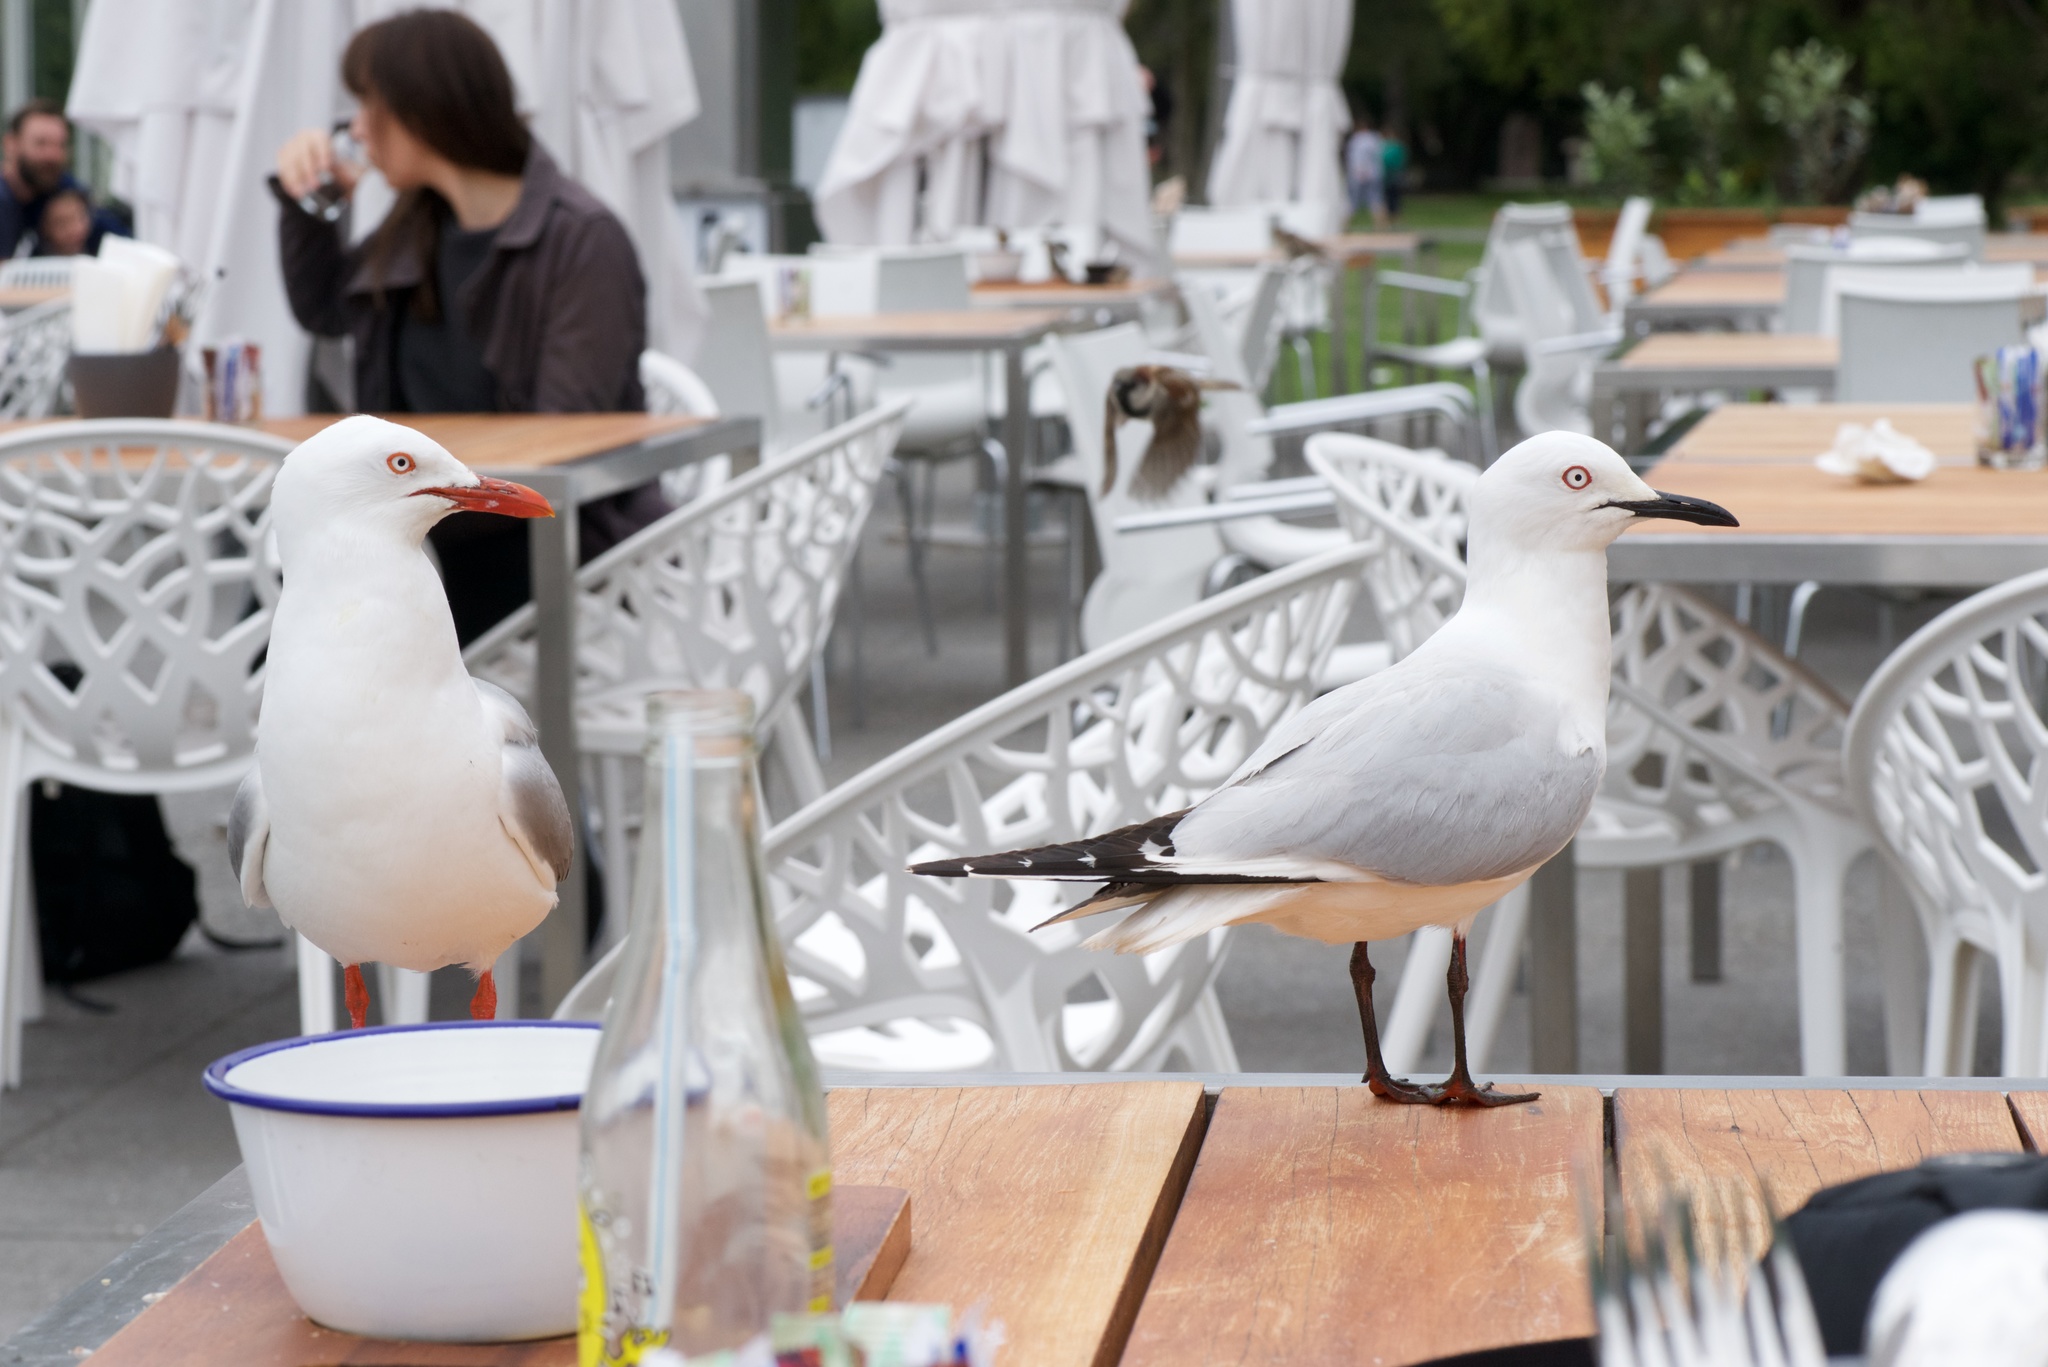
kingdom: Animalia
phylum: Chordata
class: Aves
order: Charadriiformes
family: Laridae
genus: Chroicocephalus
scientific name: Chroicocephalus novaehollandiae
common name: Silver gull
